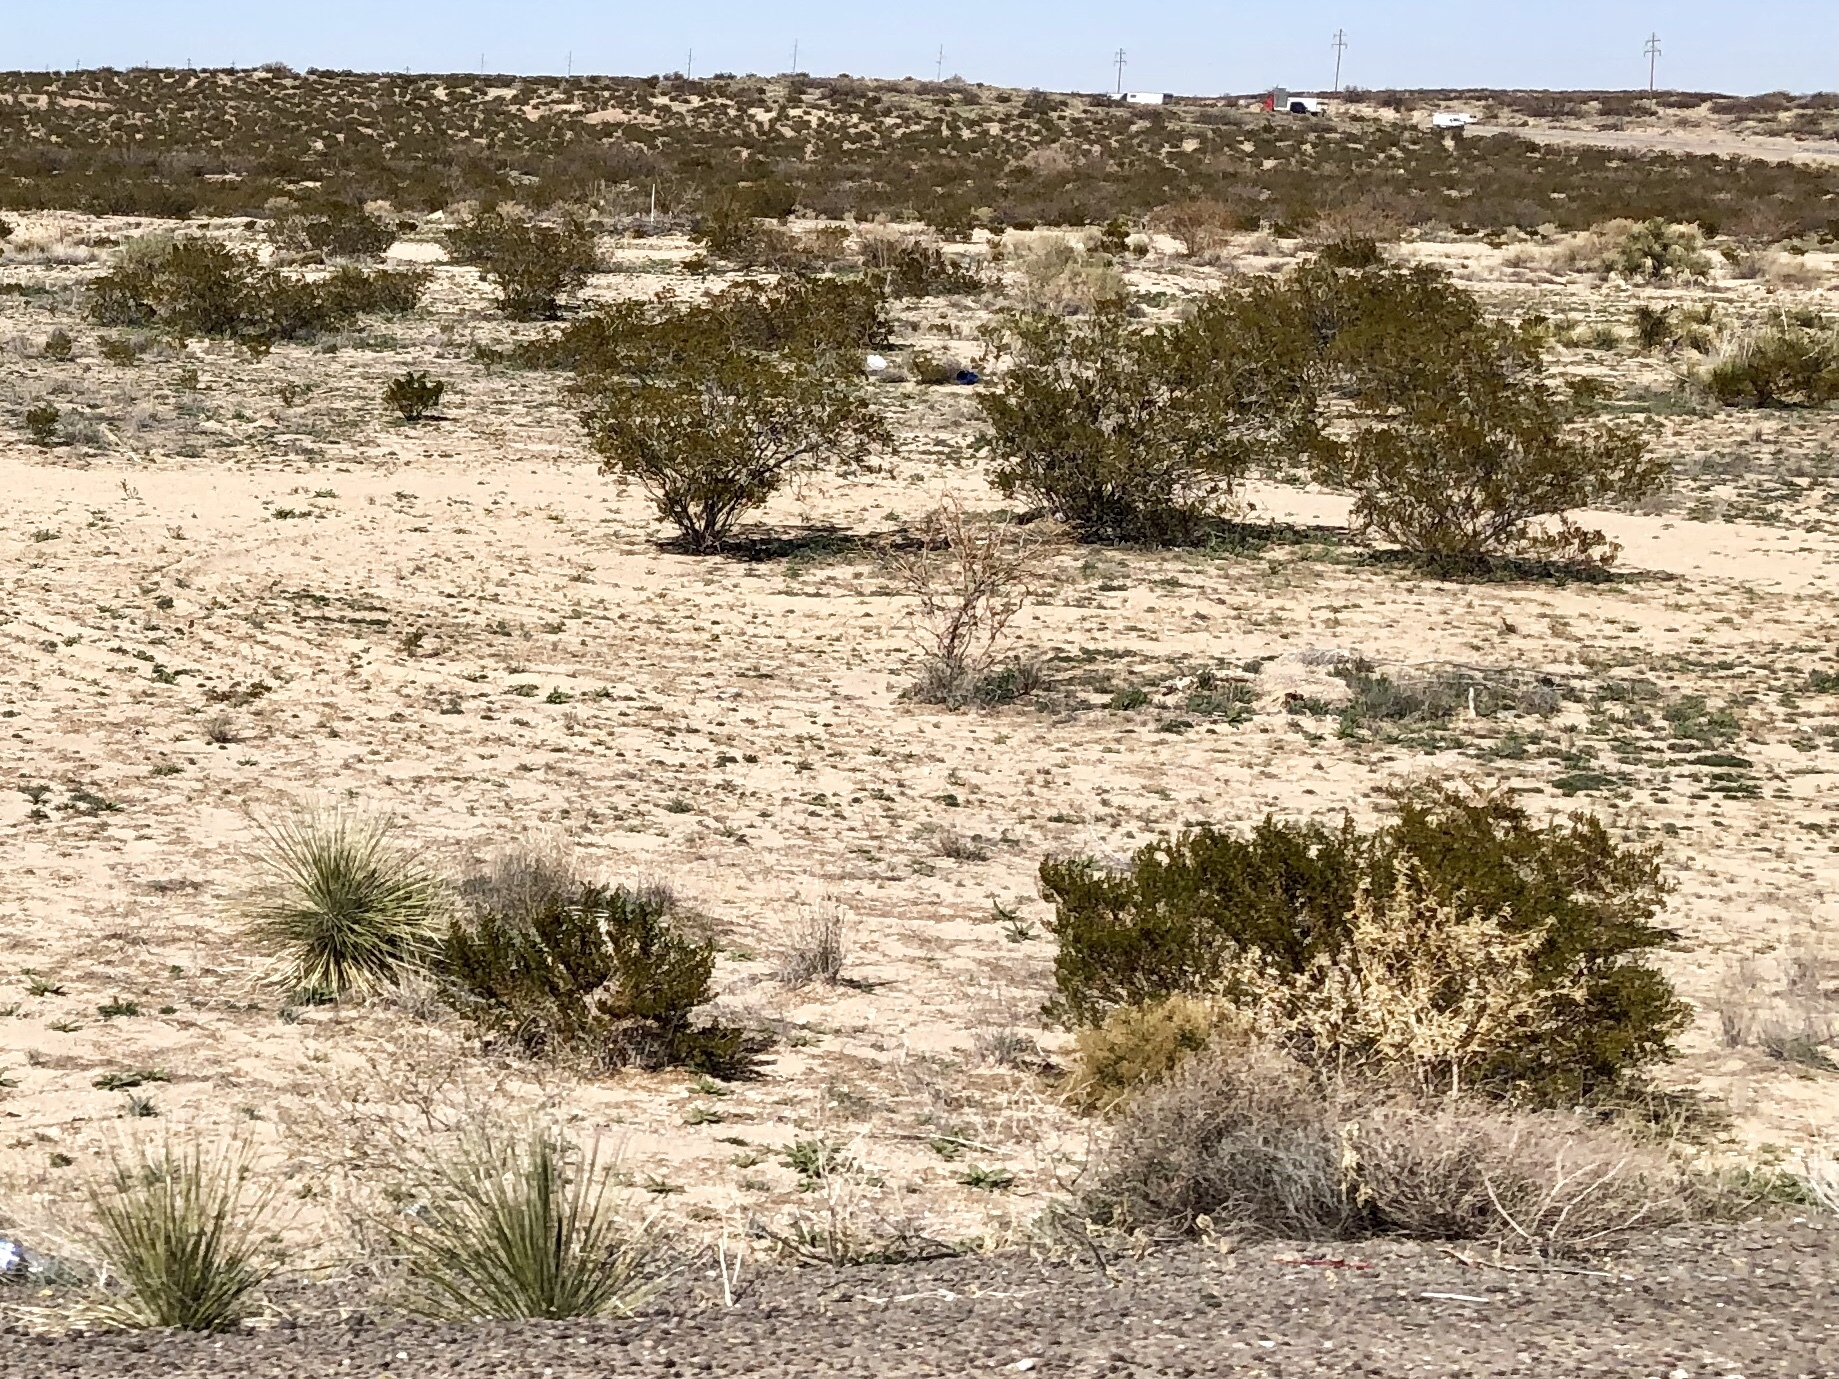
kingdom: Plantae
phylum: Tracheophyta
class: Magnoliopsida
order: Zygophyllales
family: Zygophyllaceae
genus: Larrea
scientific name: Larrea tridentata
